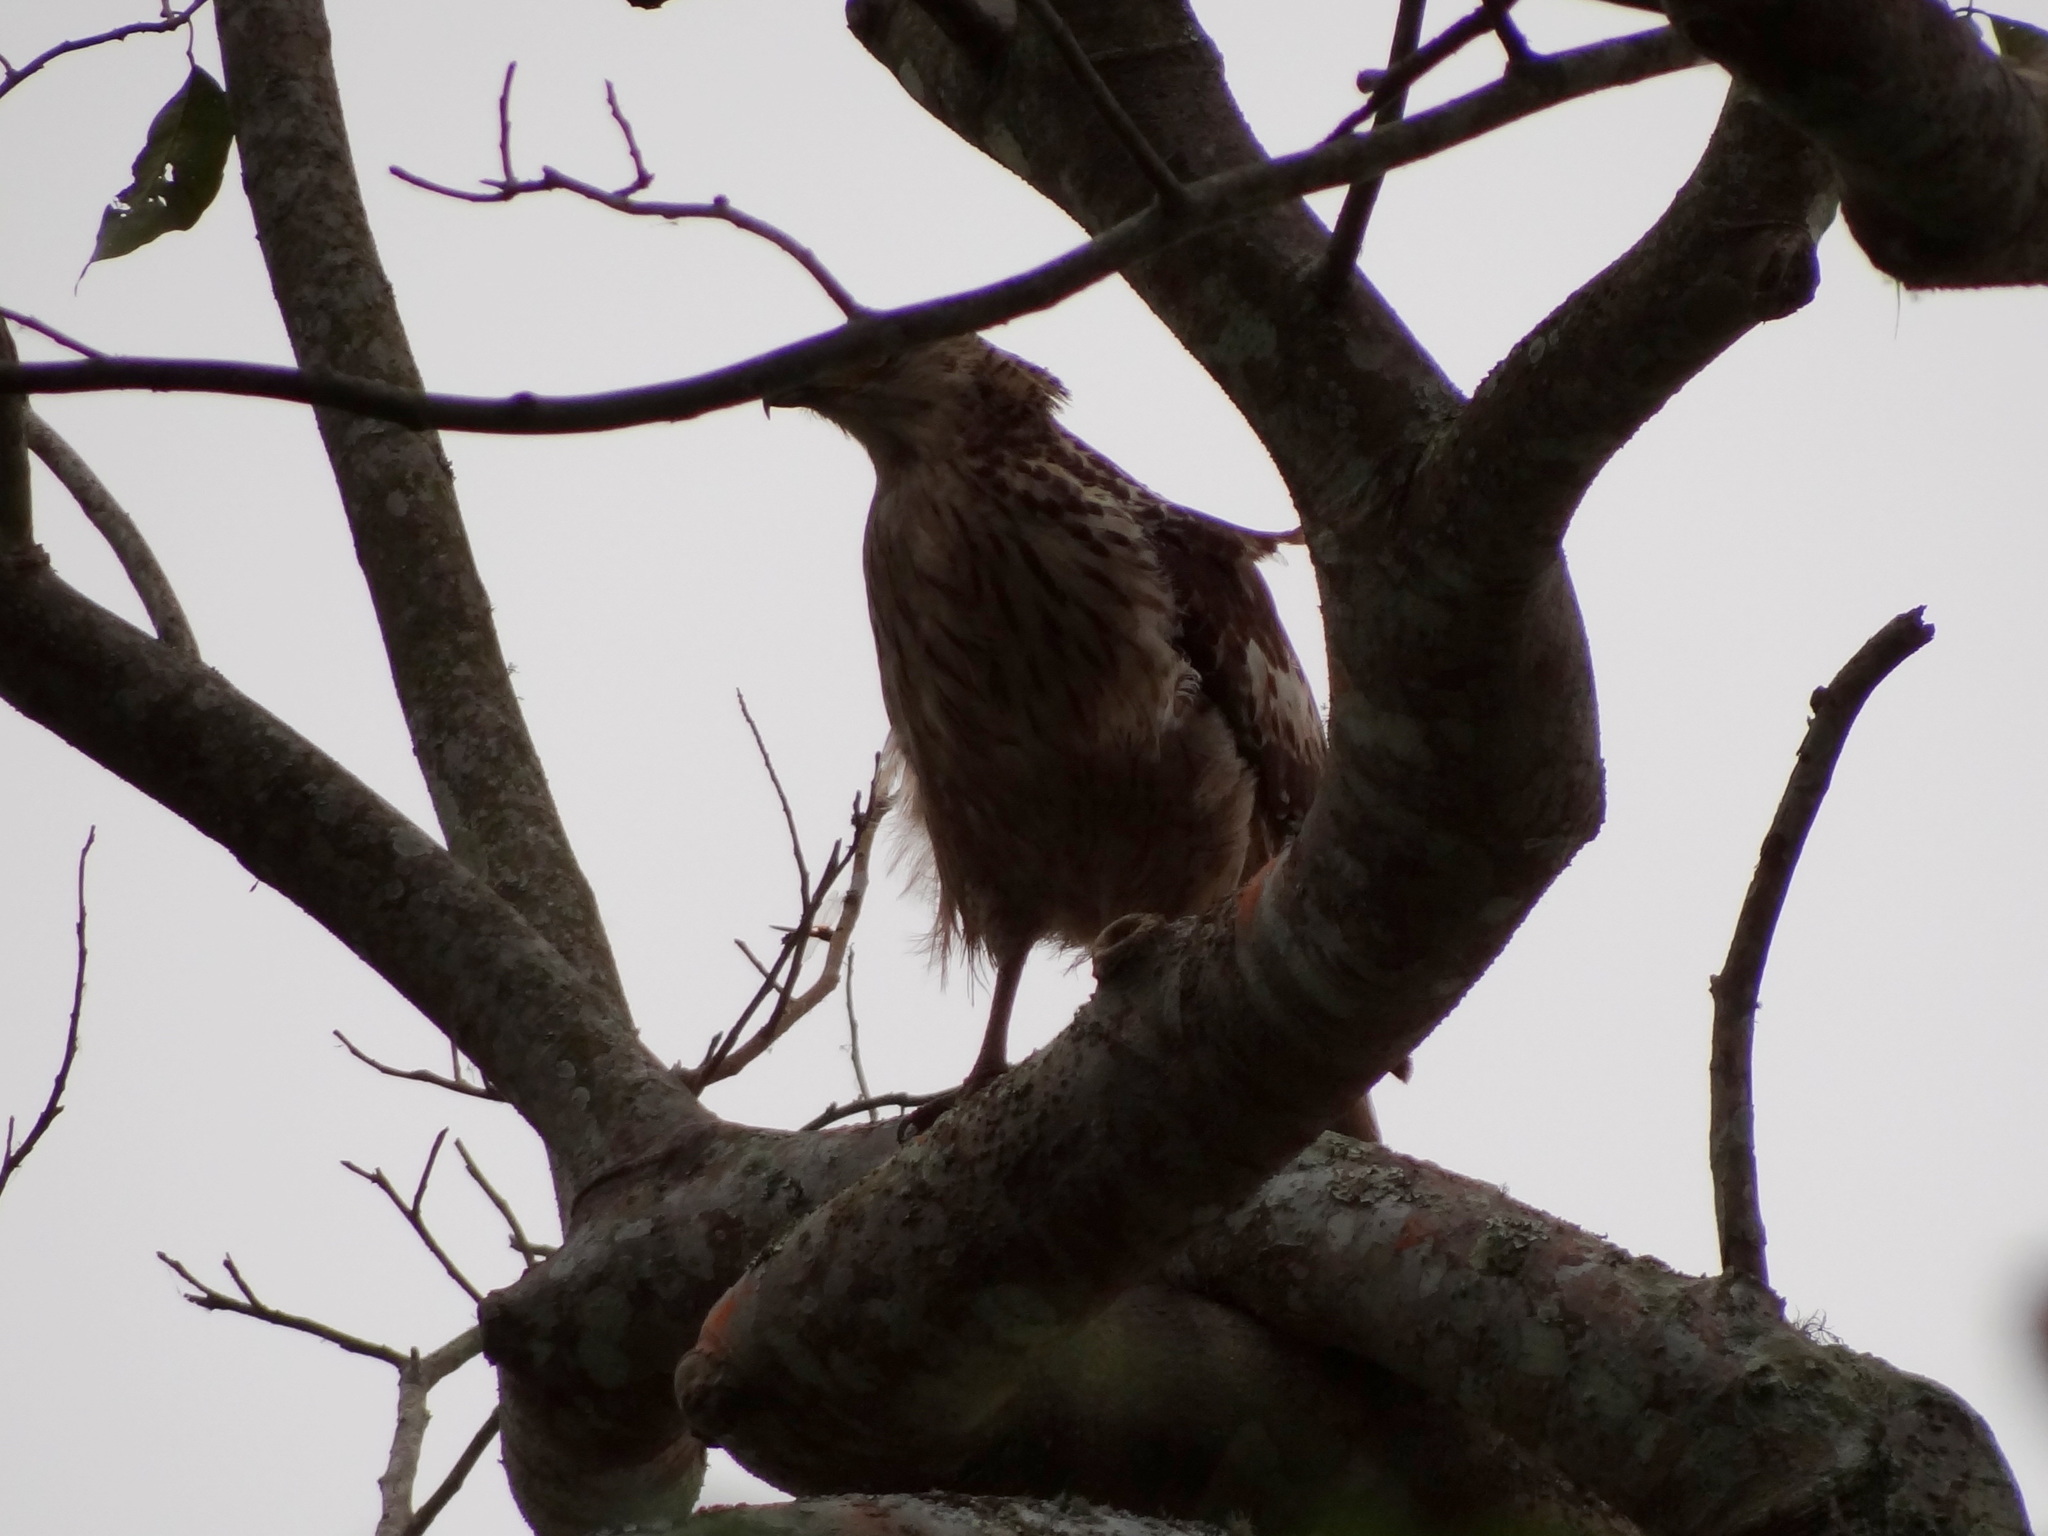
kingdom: Animalia
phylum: Chordata
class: Aves
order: Accipitriformes
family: Accipitridae
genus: Nisaetus
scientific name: Nisaetus cirrhatus
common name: Changeable hawk-eagle
